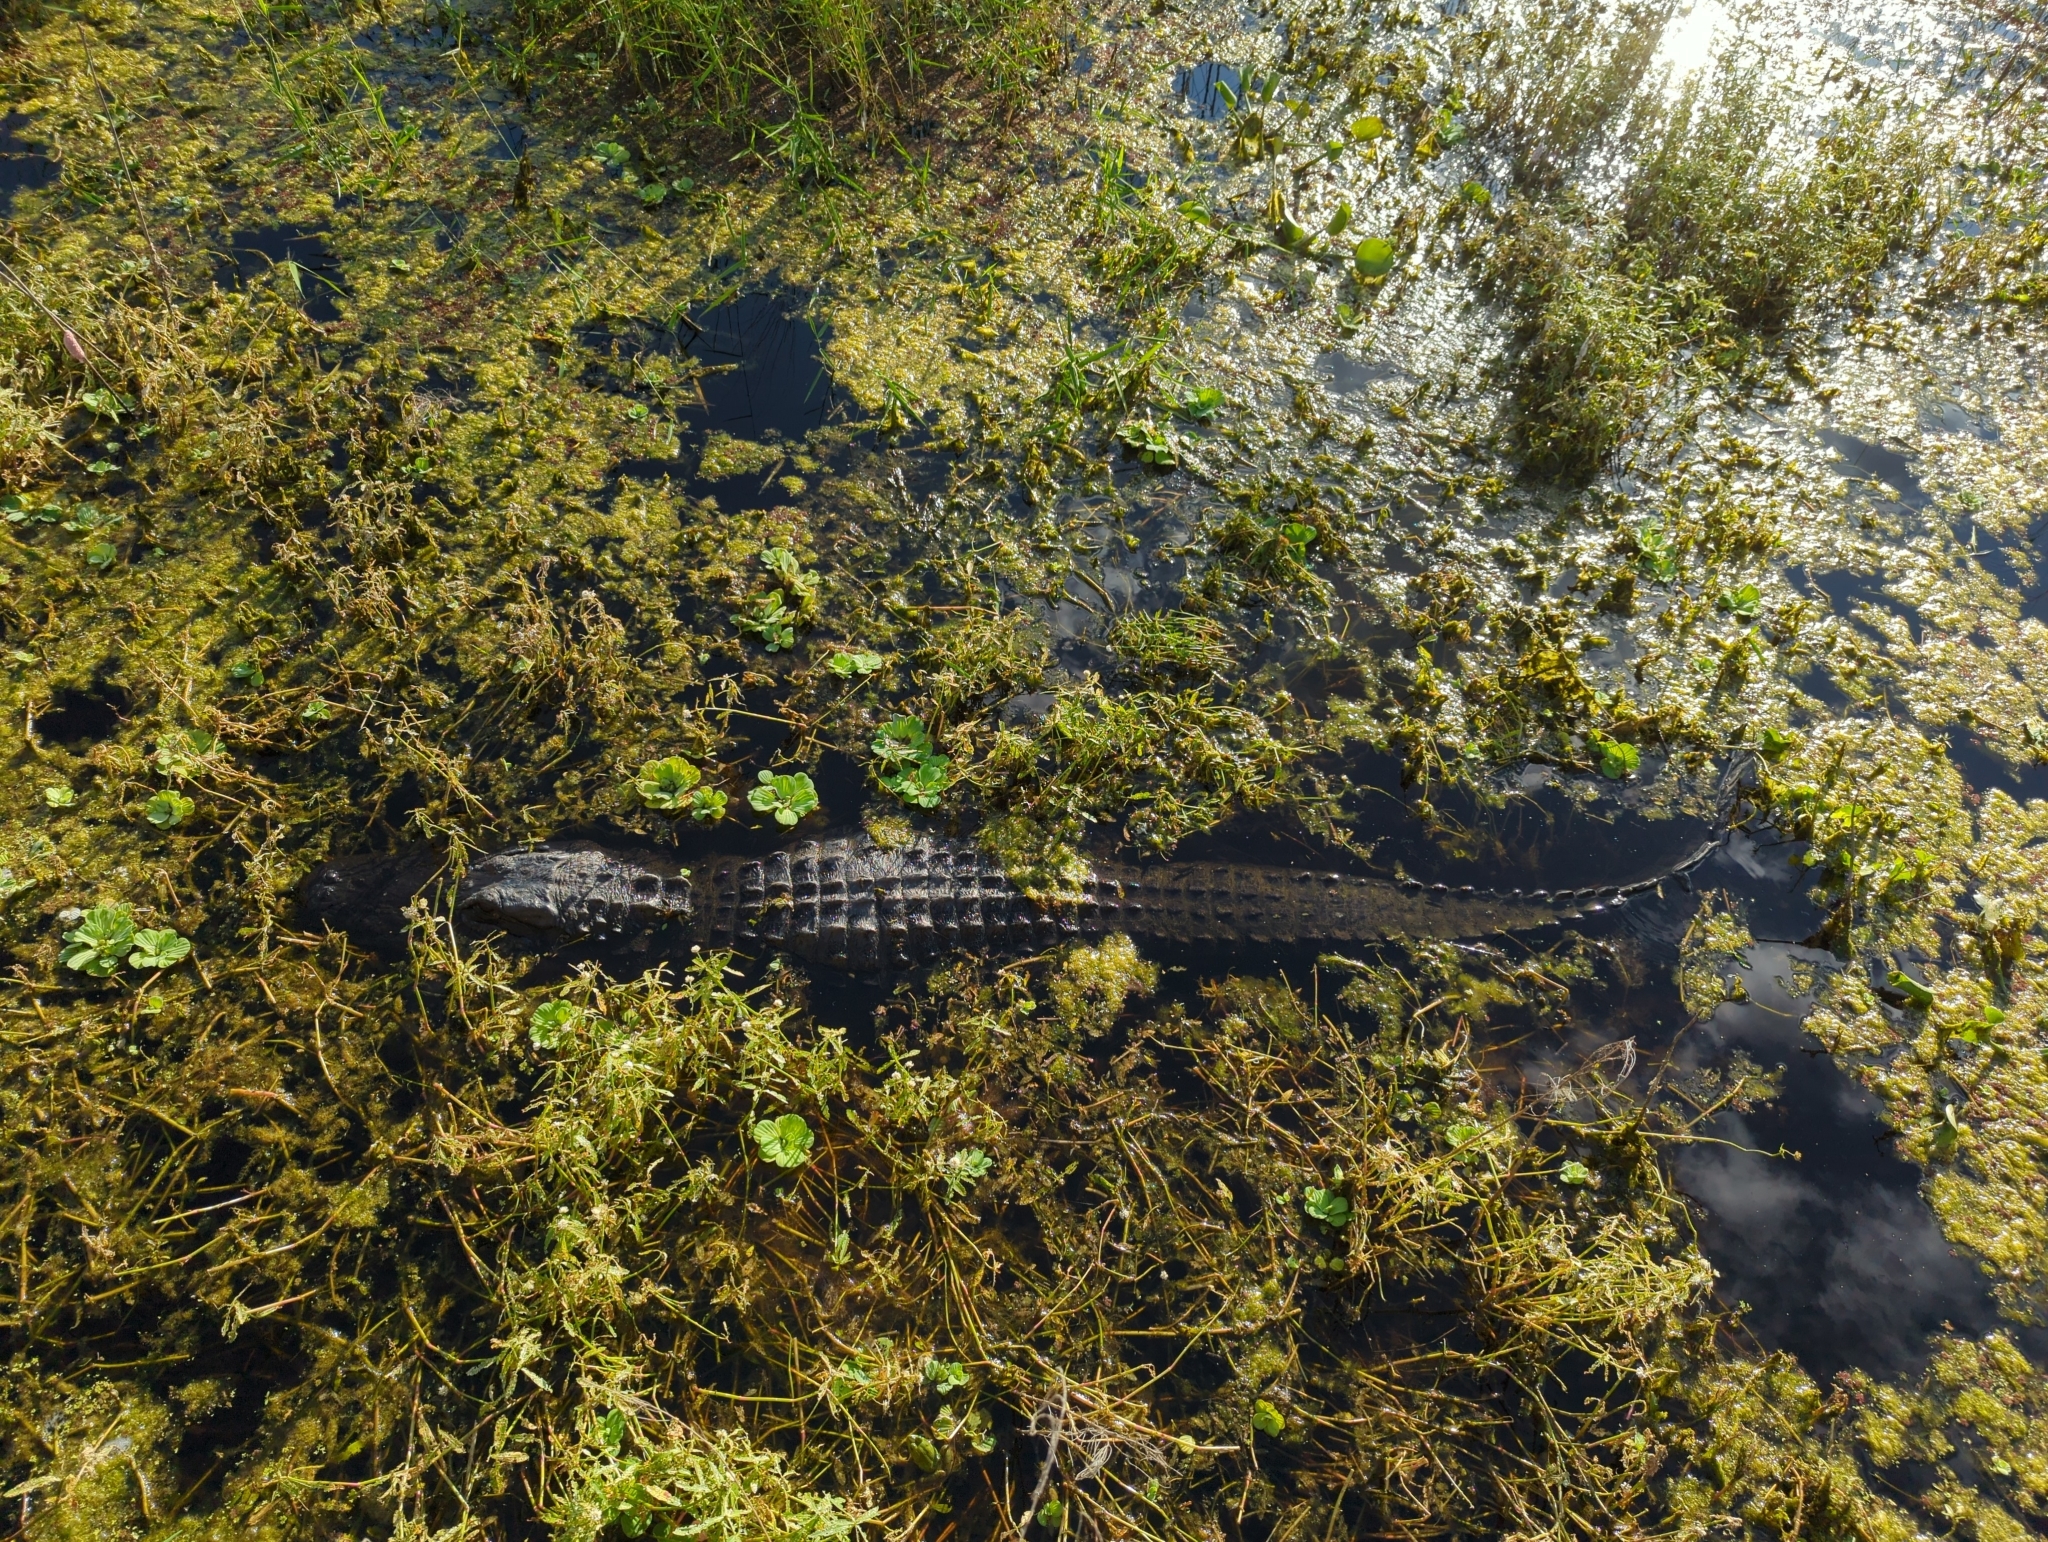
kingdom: Animalia
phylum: Chordata
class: Crocodylia
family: Alligatoridae
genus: Alligator
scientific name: Alligator mississippiensis
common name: American alligator
